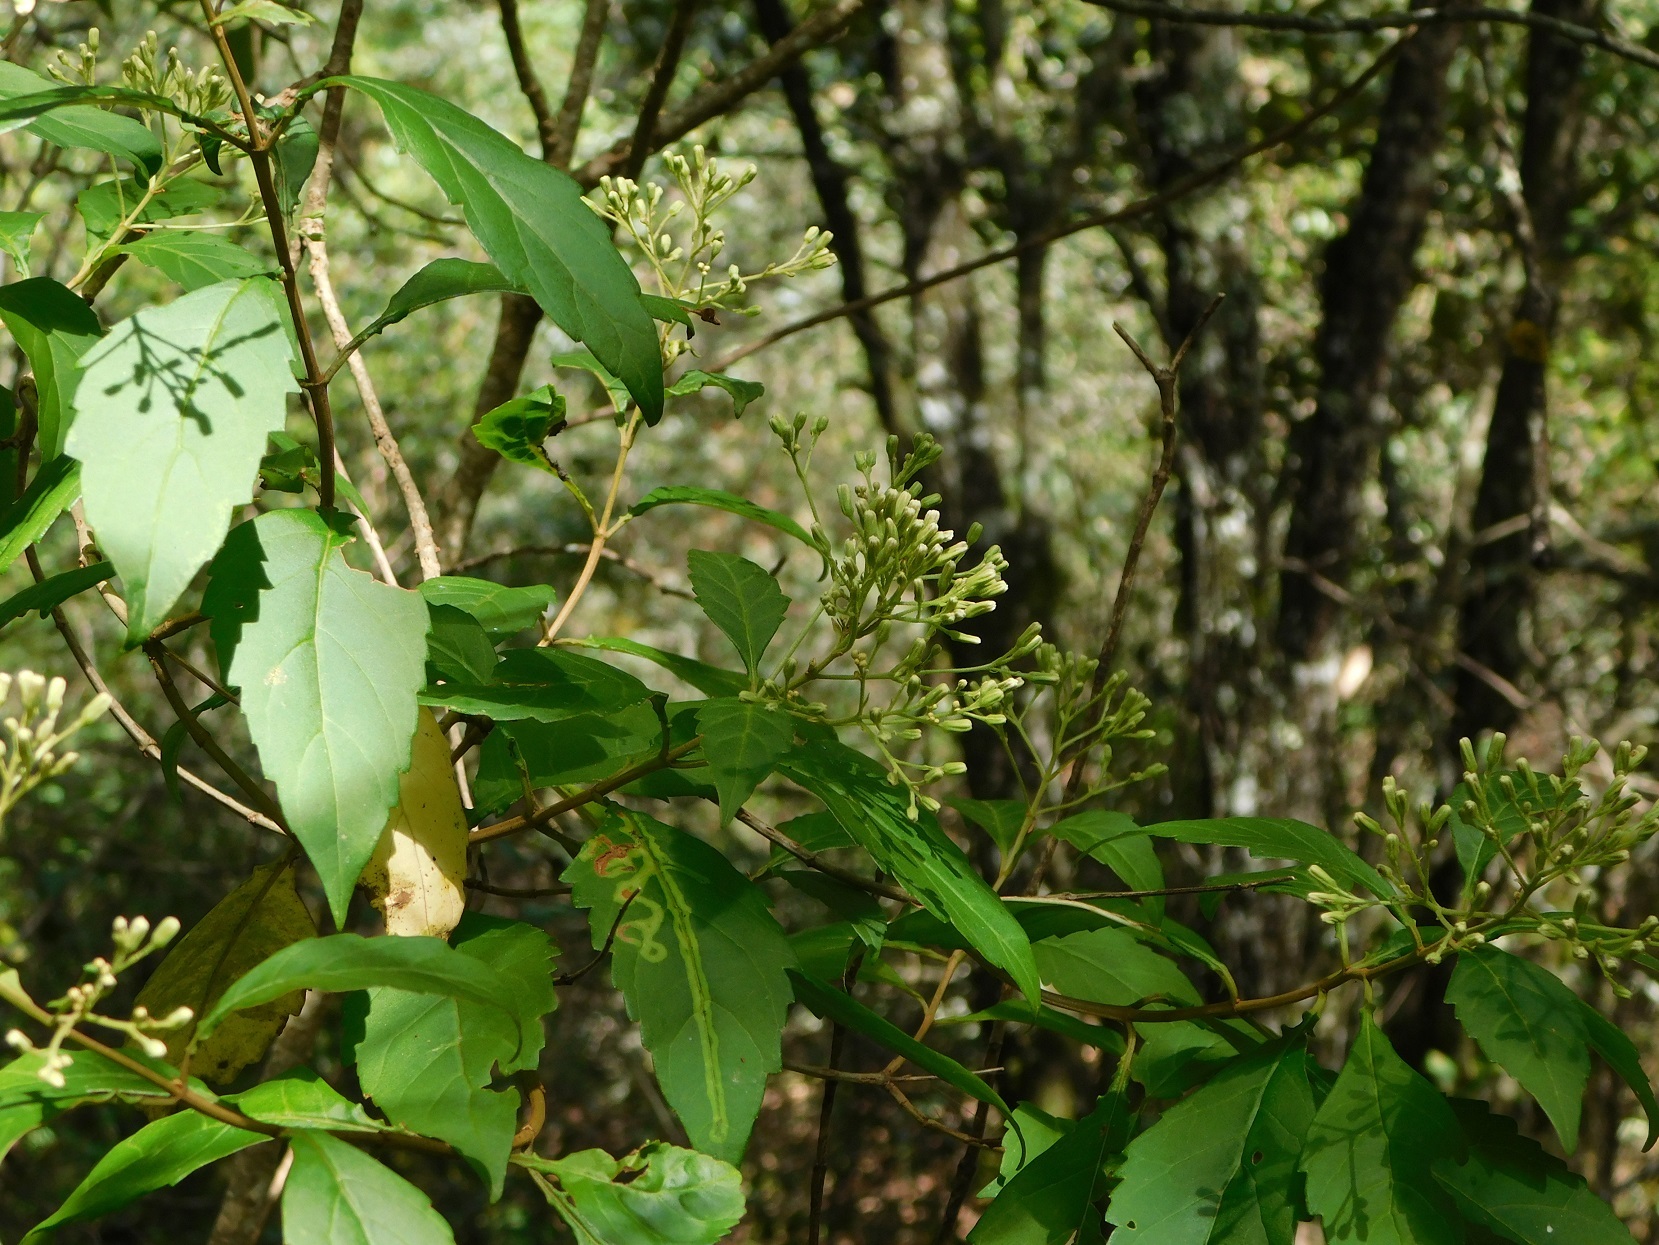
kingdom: Plantae
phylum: Tracheophyta
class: Magnoliopsida
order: Asterales
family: Asteraceae
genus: Ageratina
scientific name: Ageratina ligustrina
